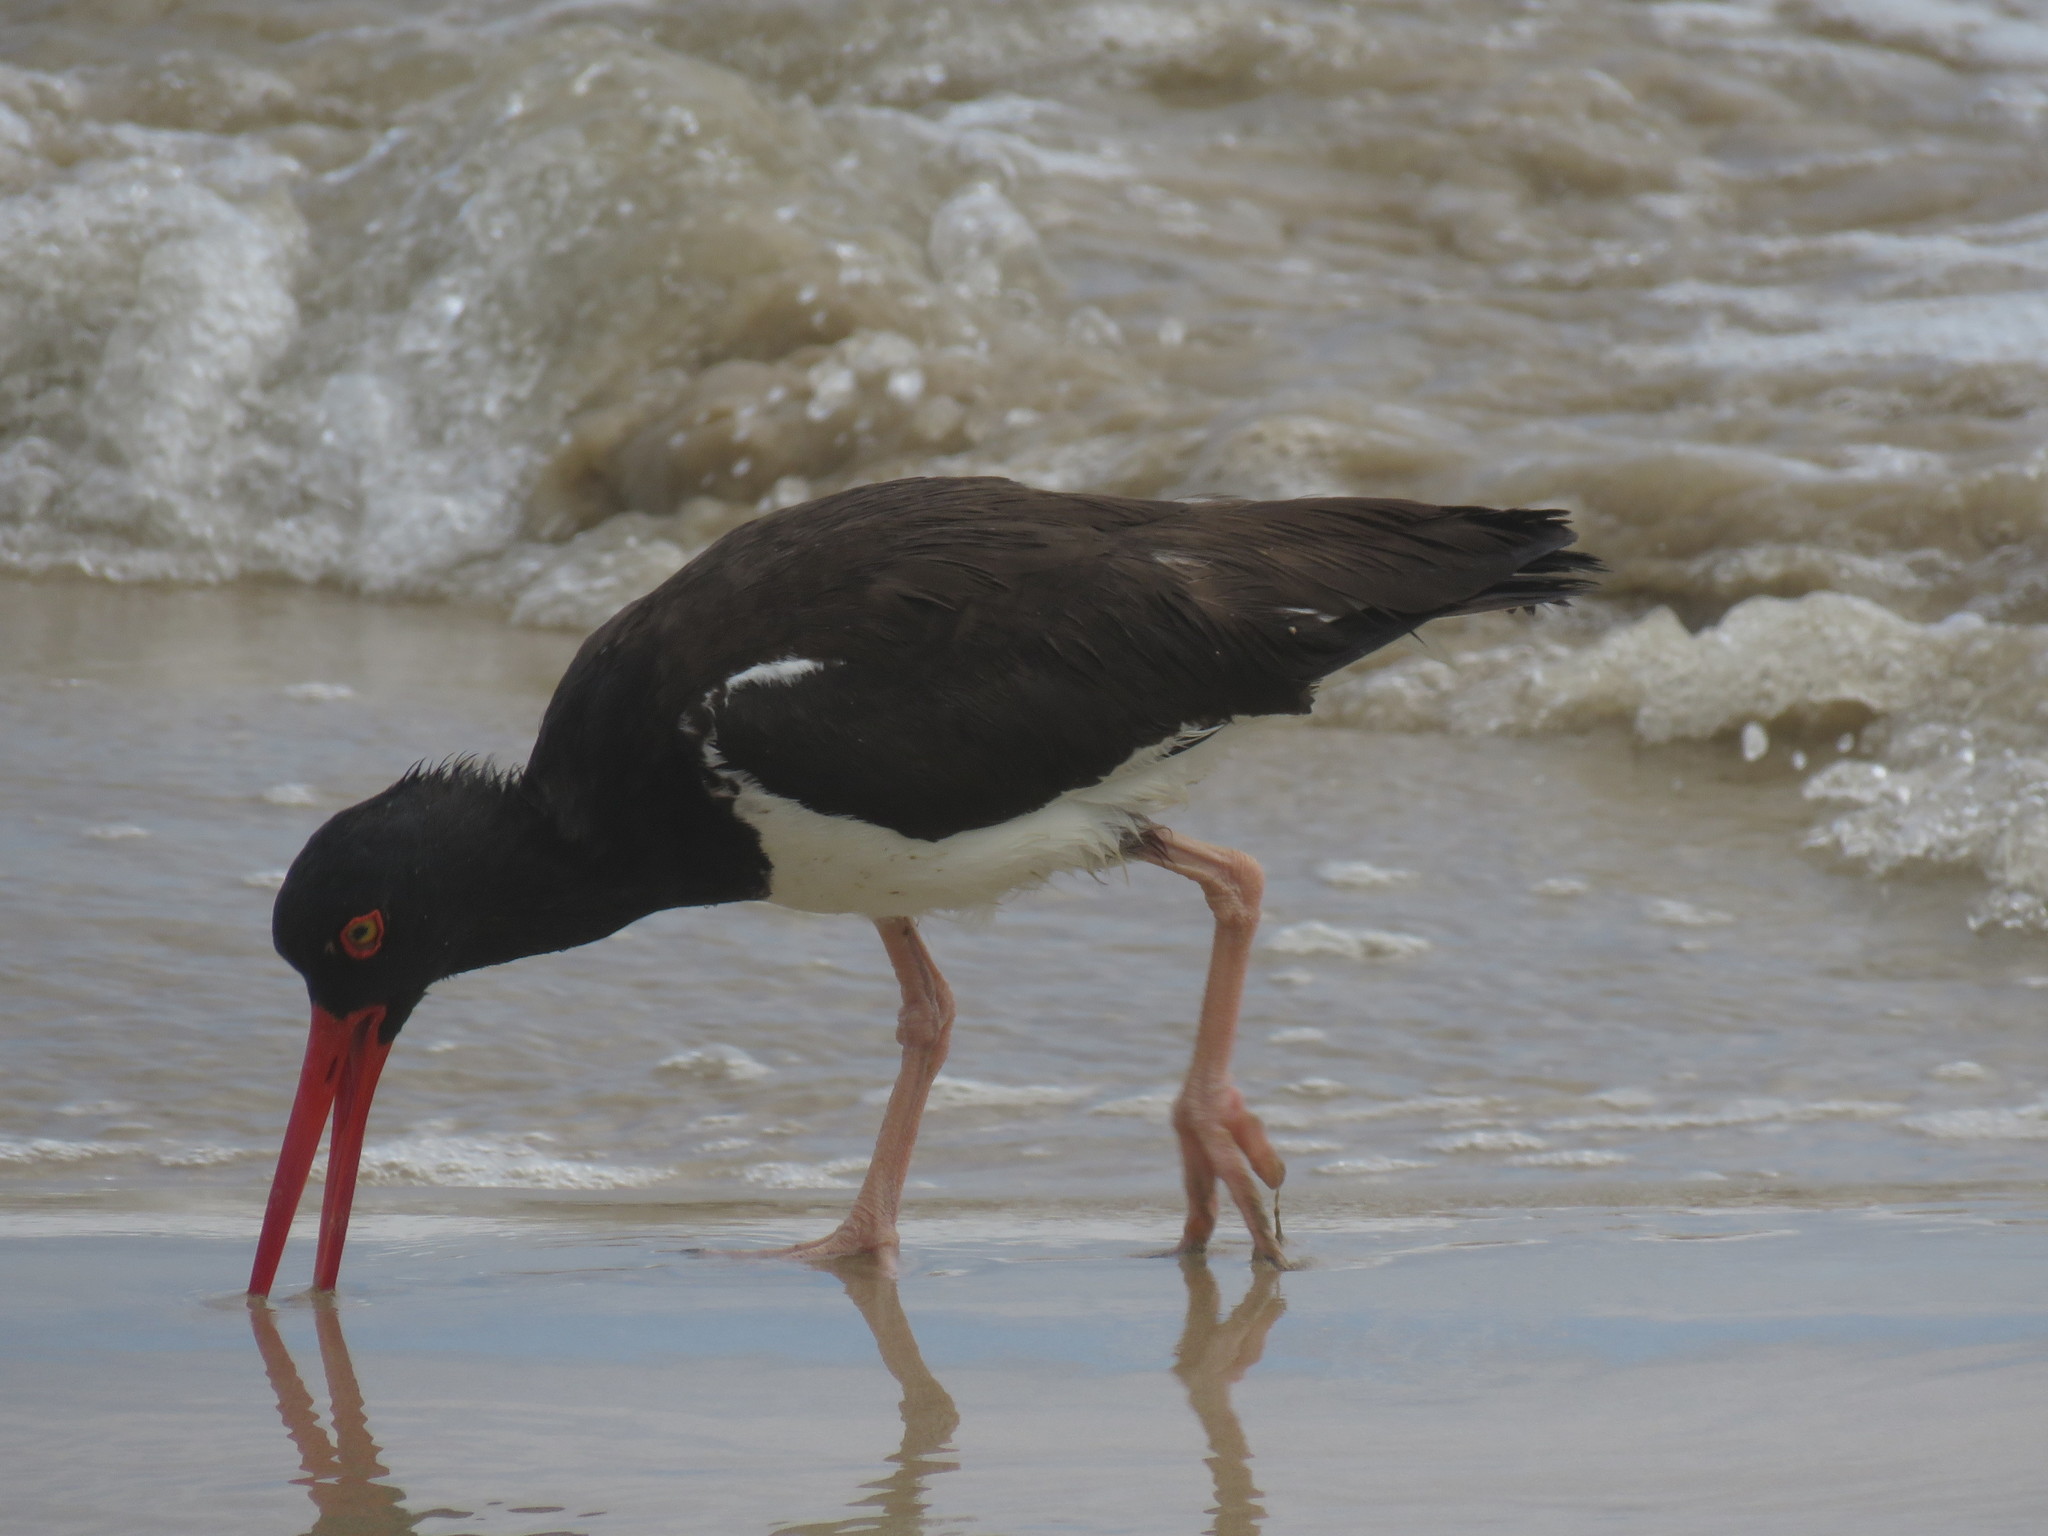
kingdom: Animalia
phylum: Chordata
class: Aves
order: Charadriiformes
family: Haematopodidae
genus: Haematopus
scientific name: Haematopus palliatus
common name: American oystercatcher
